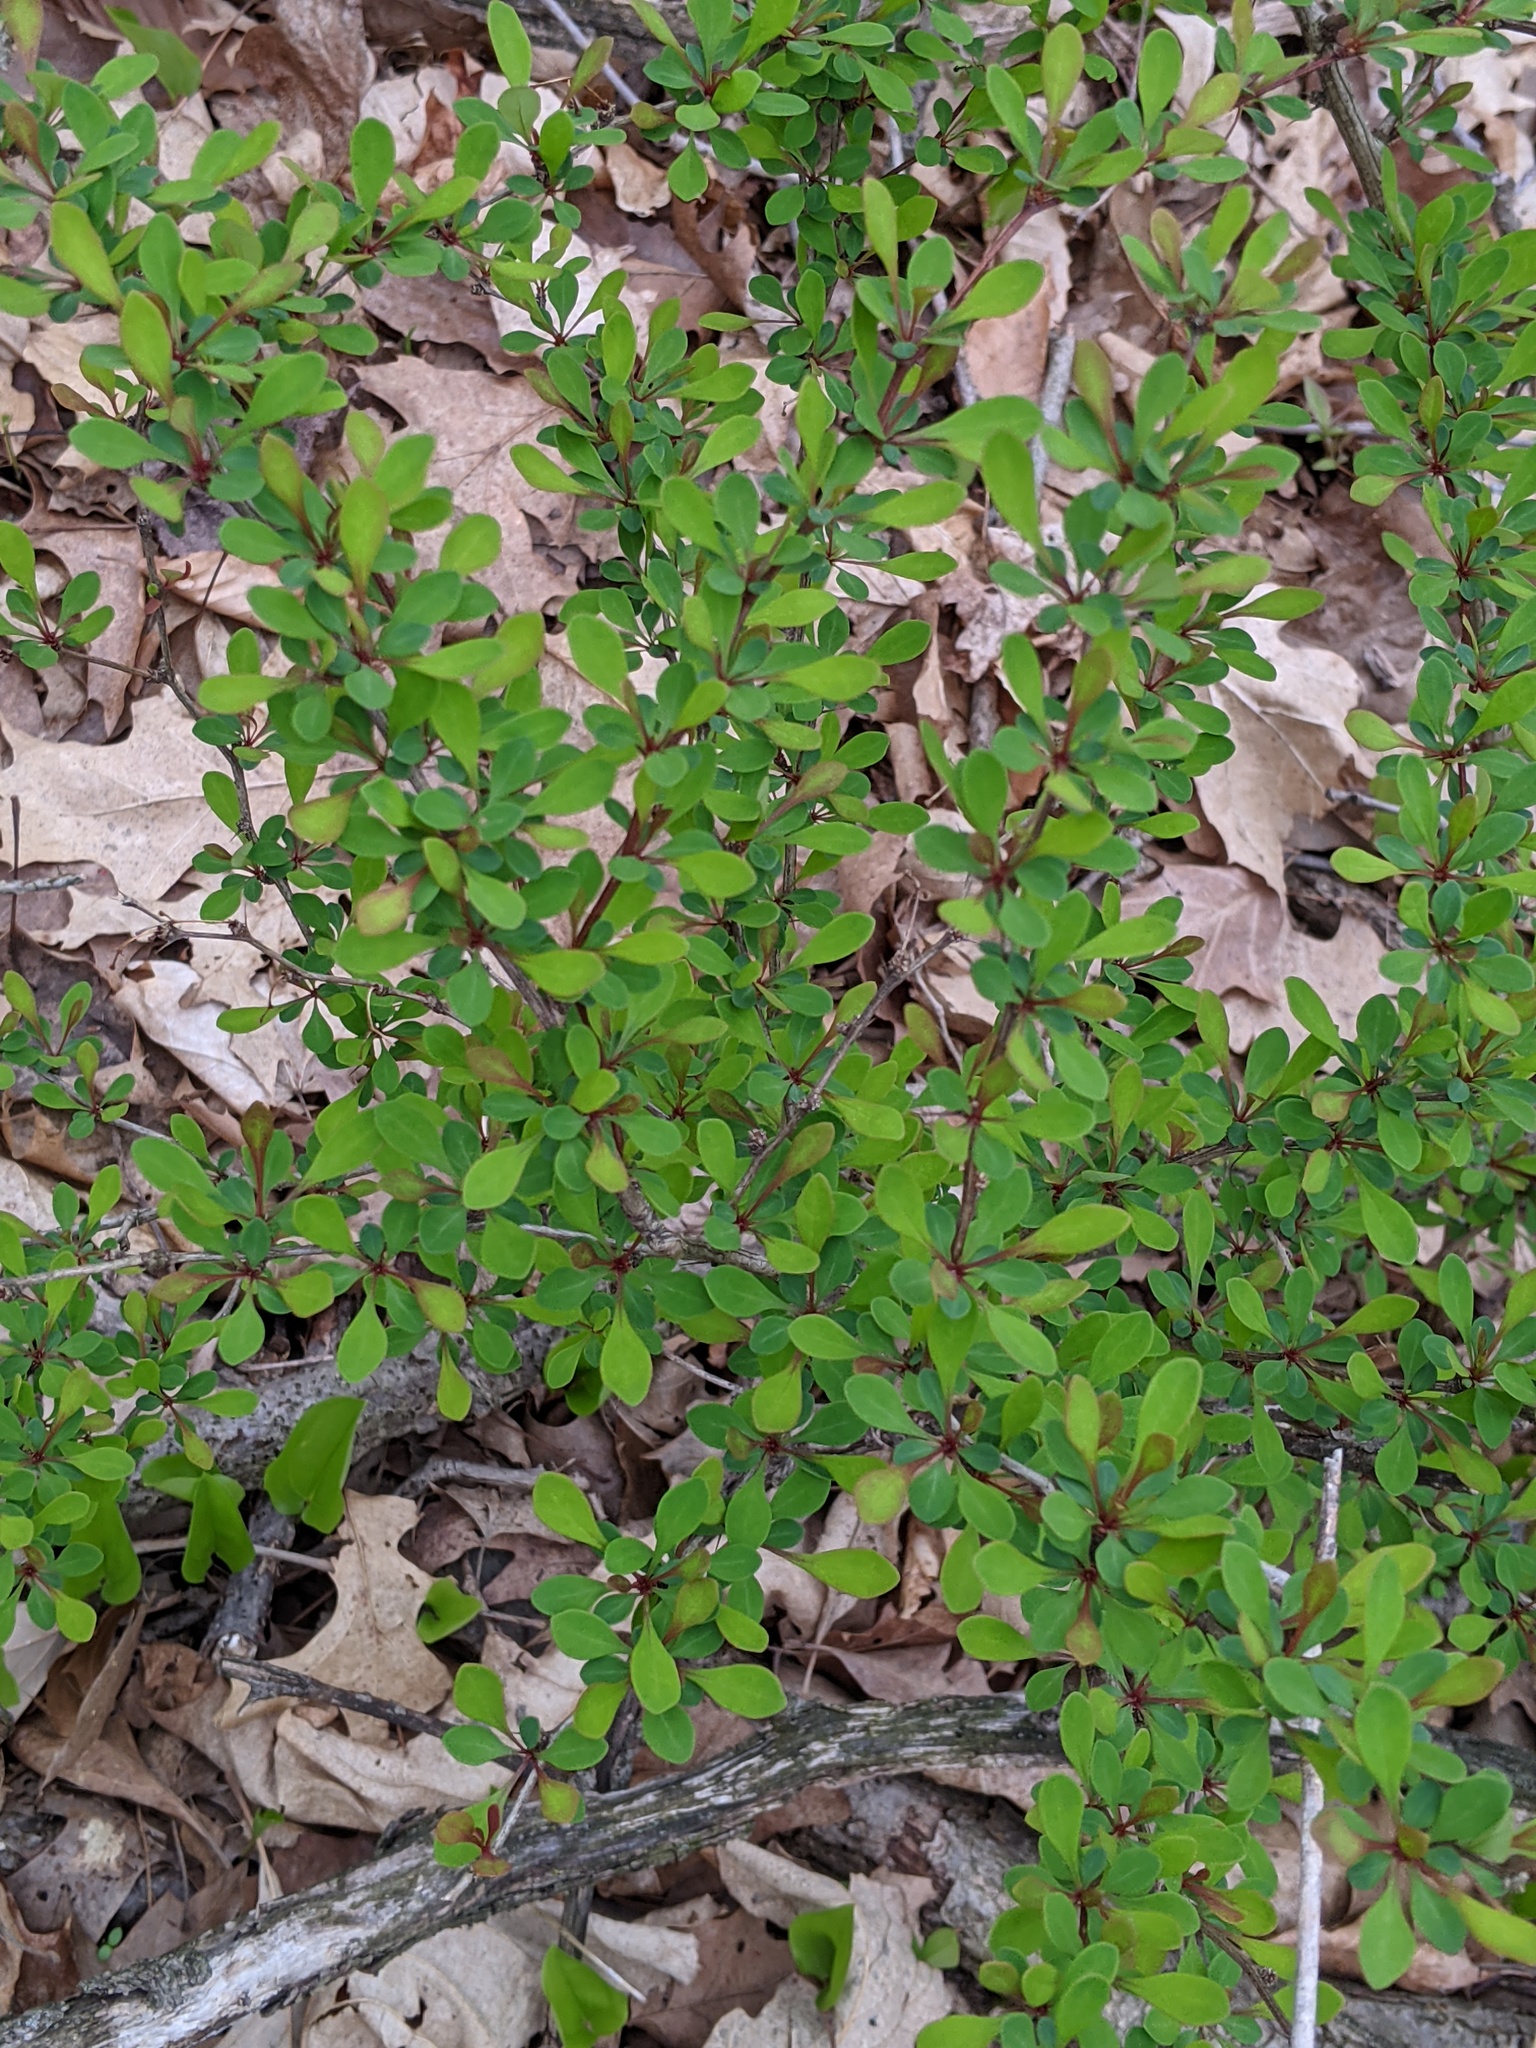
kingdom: Plantae
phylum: Tracheophyta
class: Magnoliopsida
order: Ranunculales
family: Berberidaceae
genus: Berberis
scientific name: Berberis thunbergii
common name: Japanese barberry
